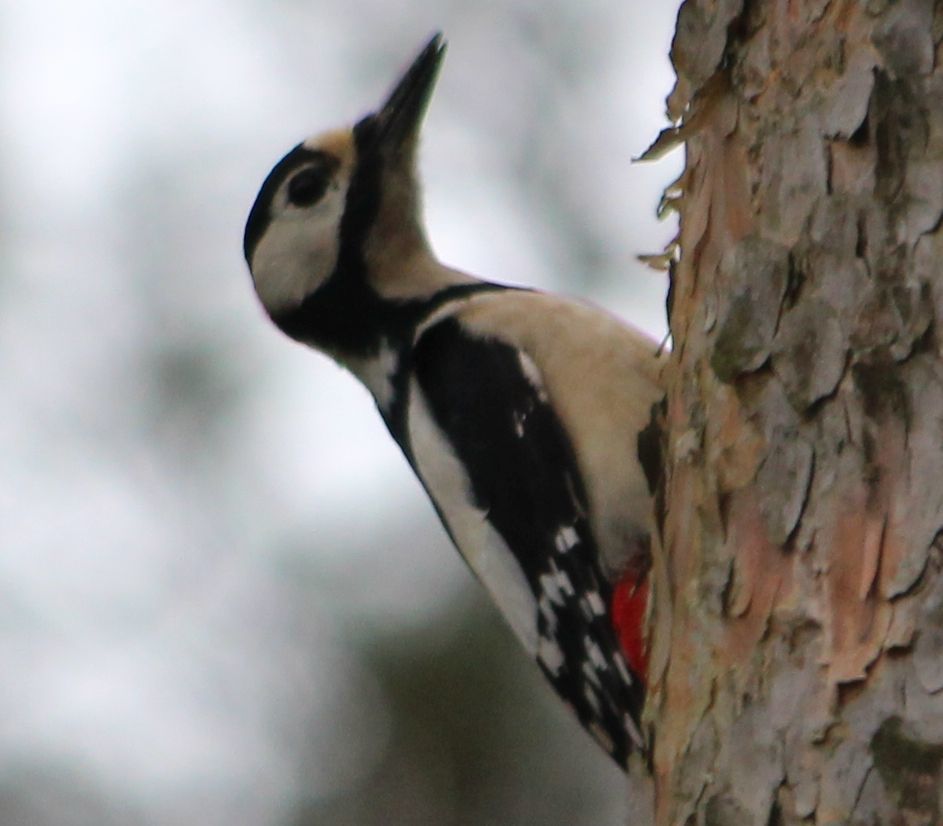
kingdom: Animalia
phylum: Chordata
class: Aves
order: Piciformes
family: Picidae
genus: Dendrocopos
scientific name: Dendrocopos major
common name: Great spotted woodpecker
